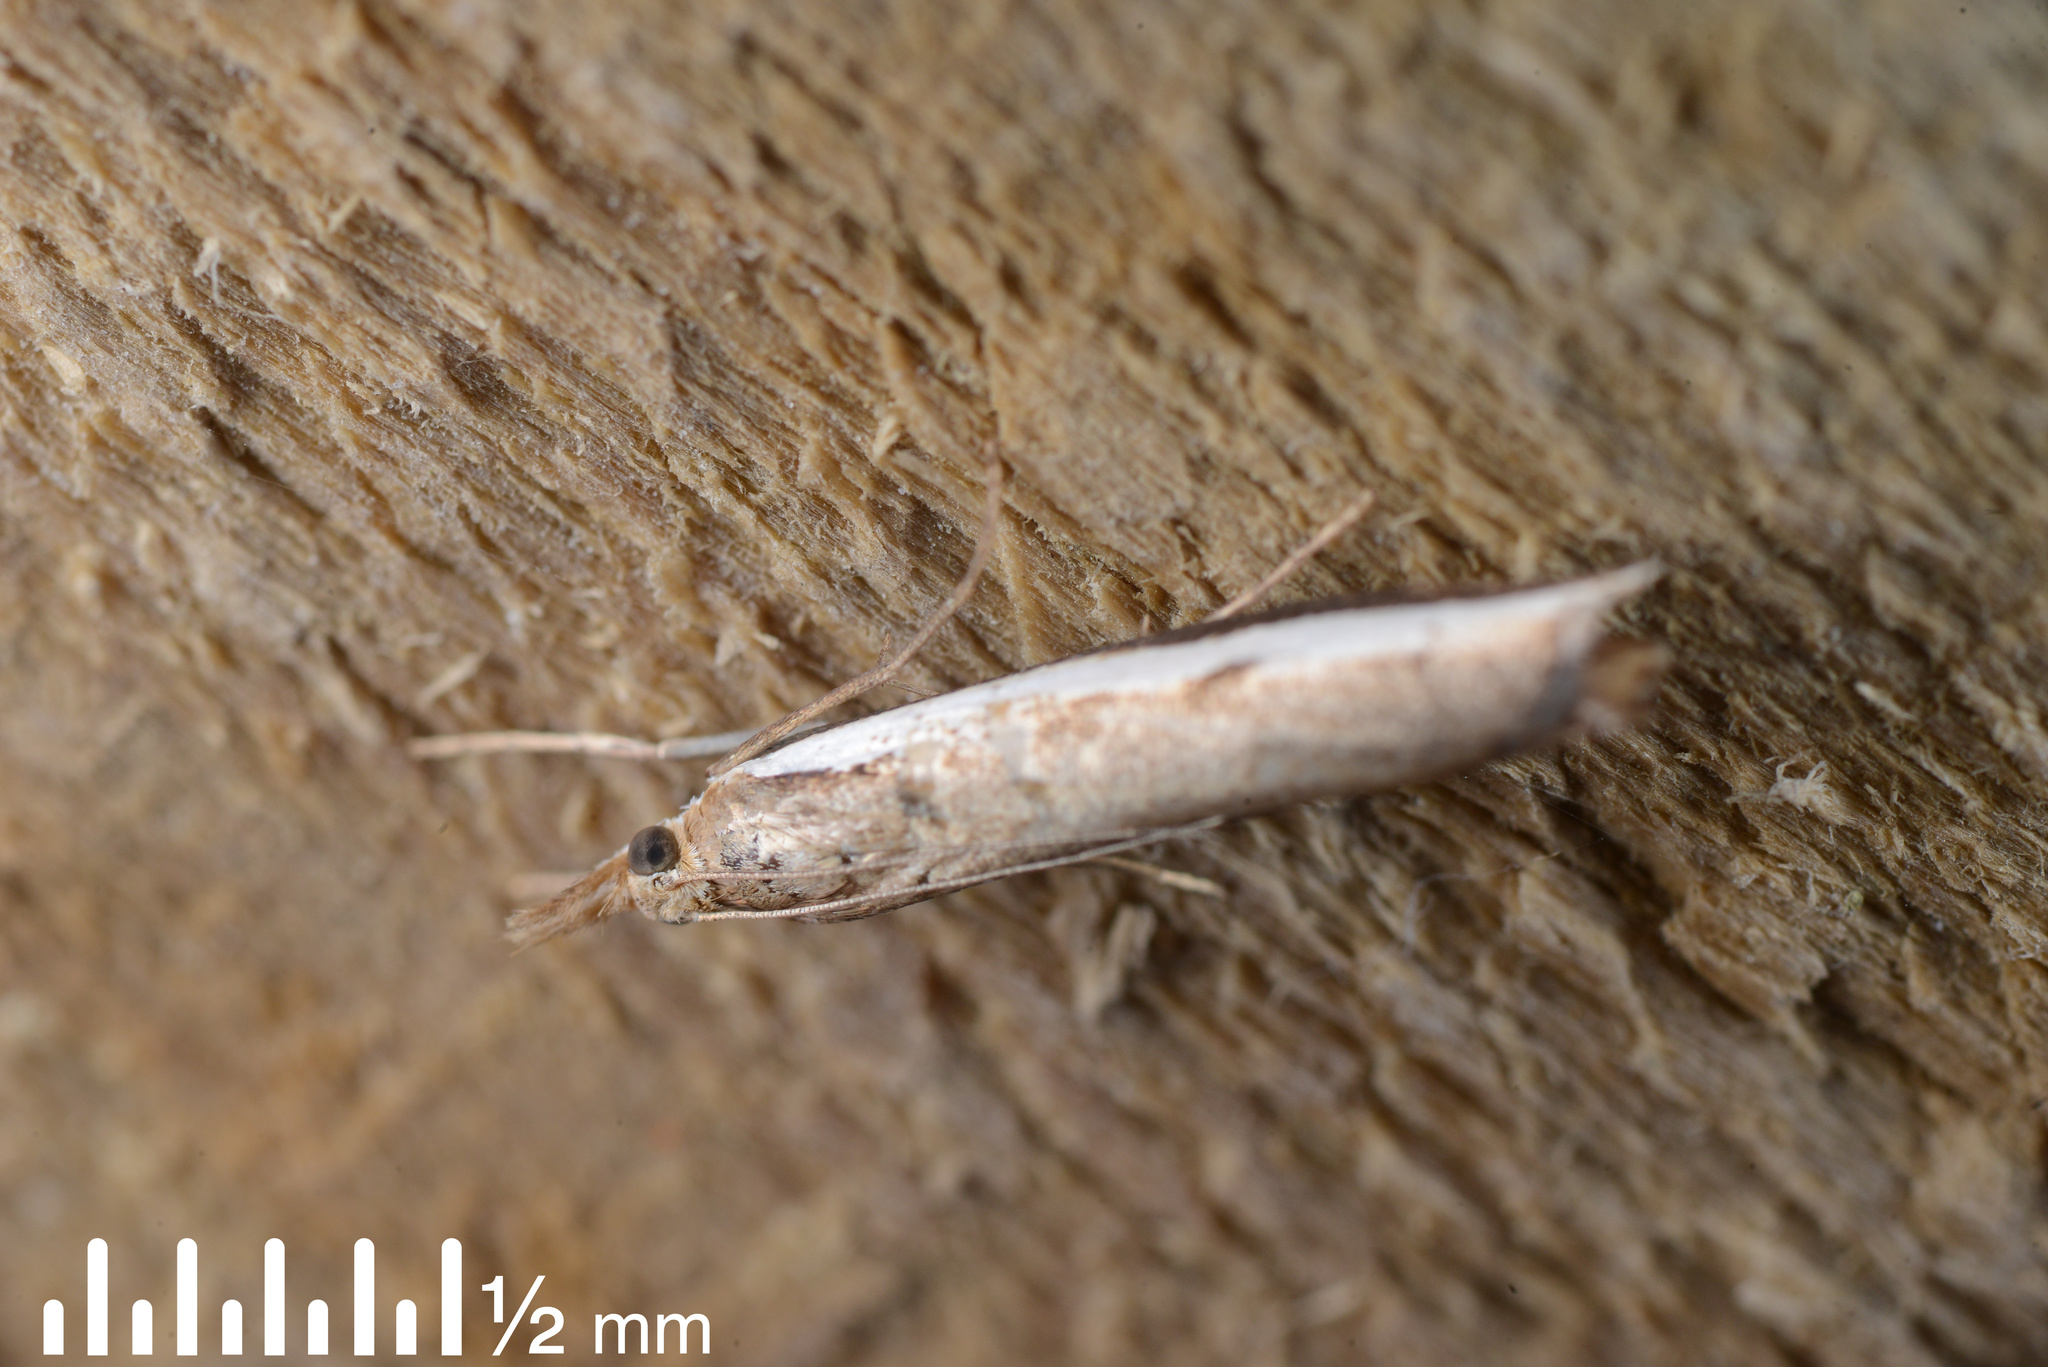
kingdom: Animalia
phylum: Arthropoda
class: Insecta
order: Lepidoptera
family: Crambidae
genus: Orocrambus
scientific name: Orocrambus flexuosellus
